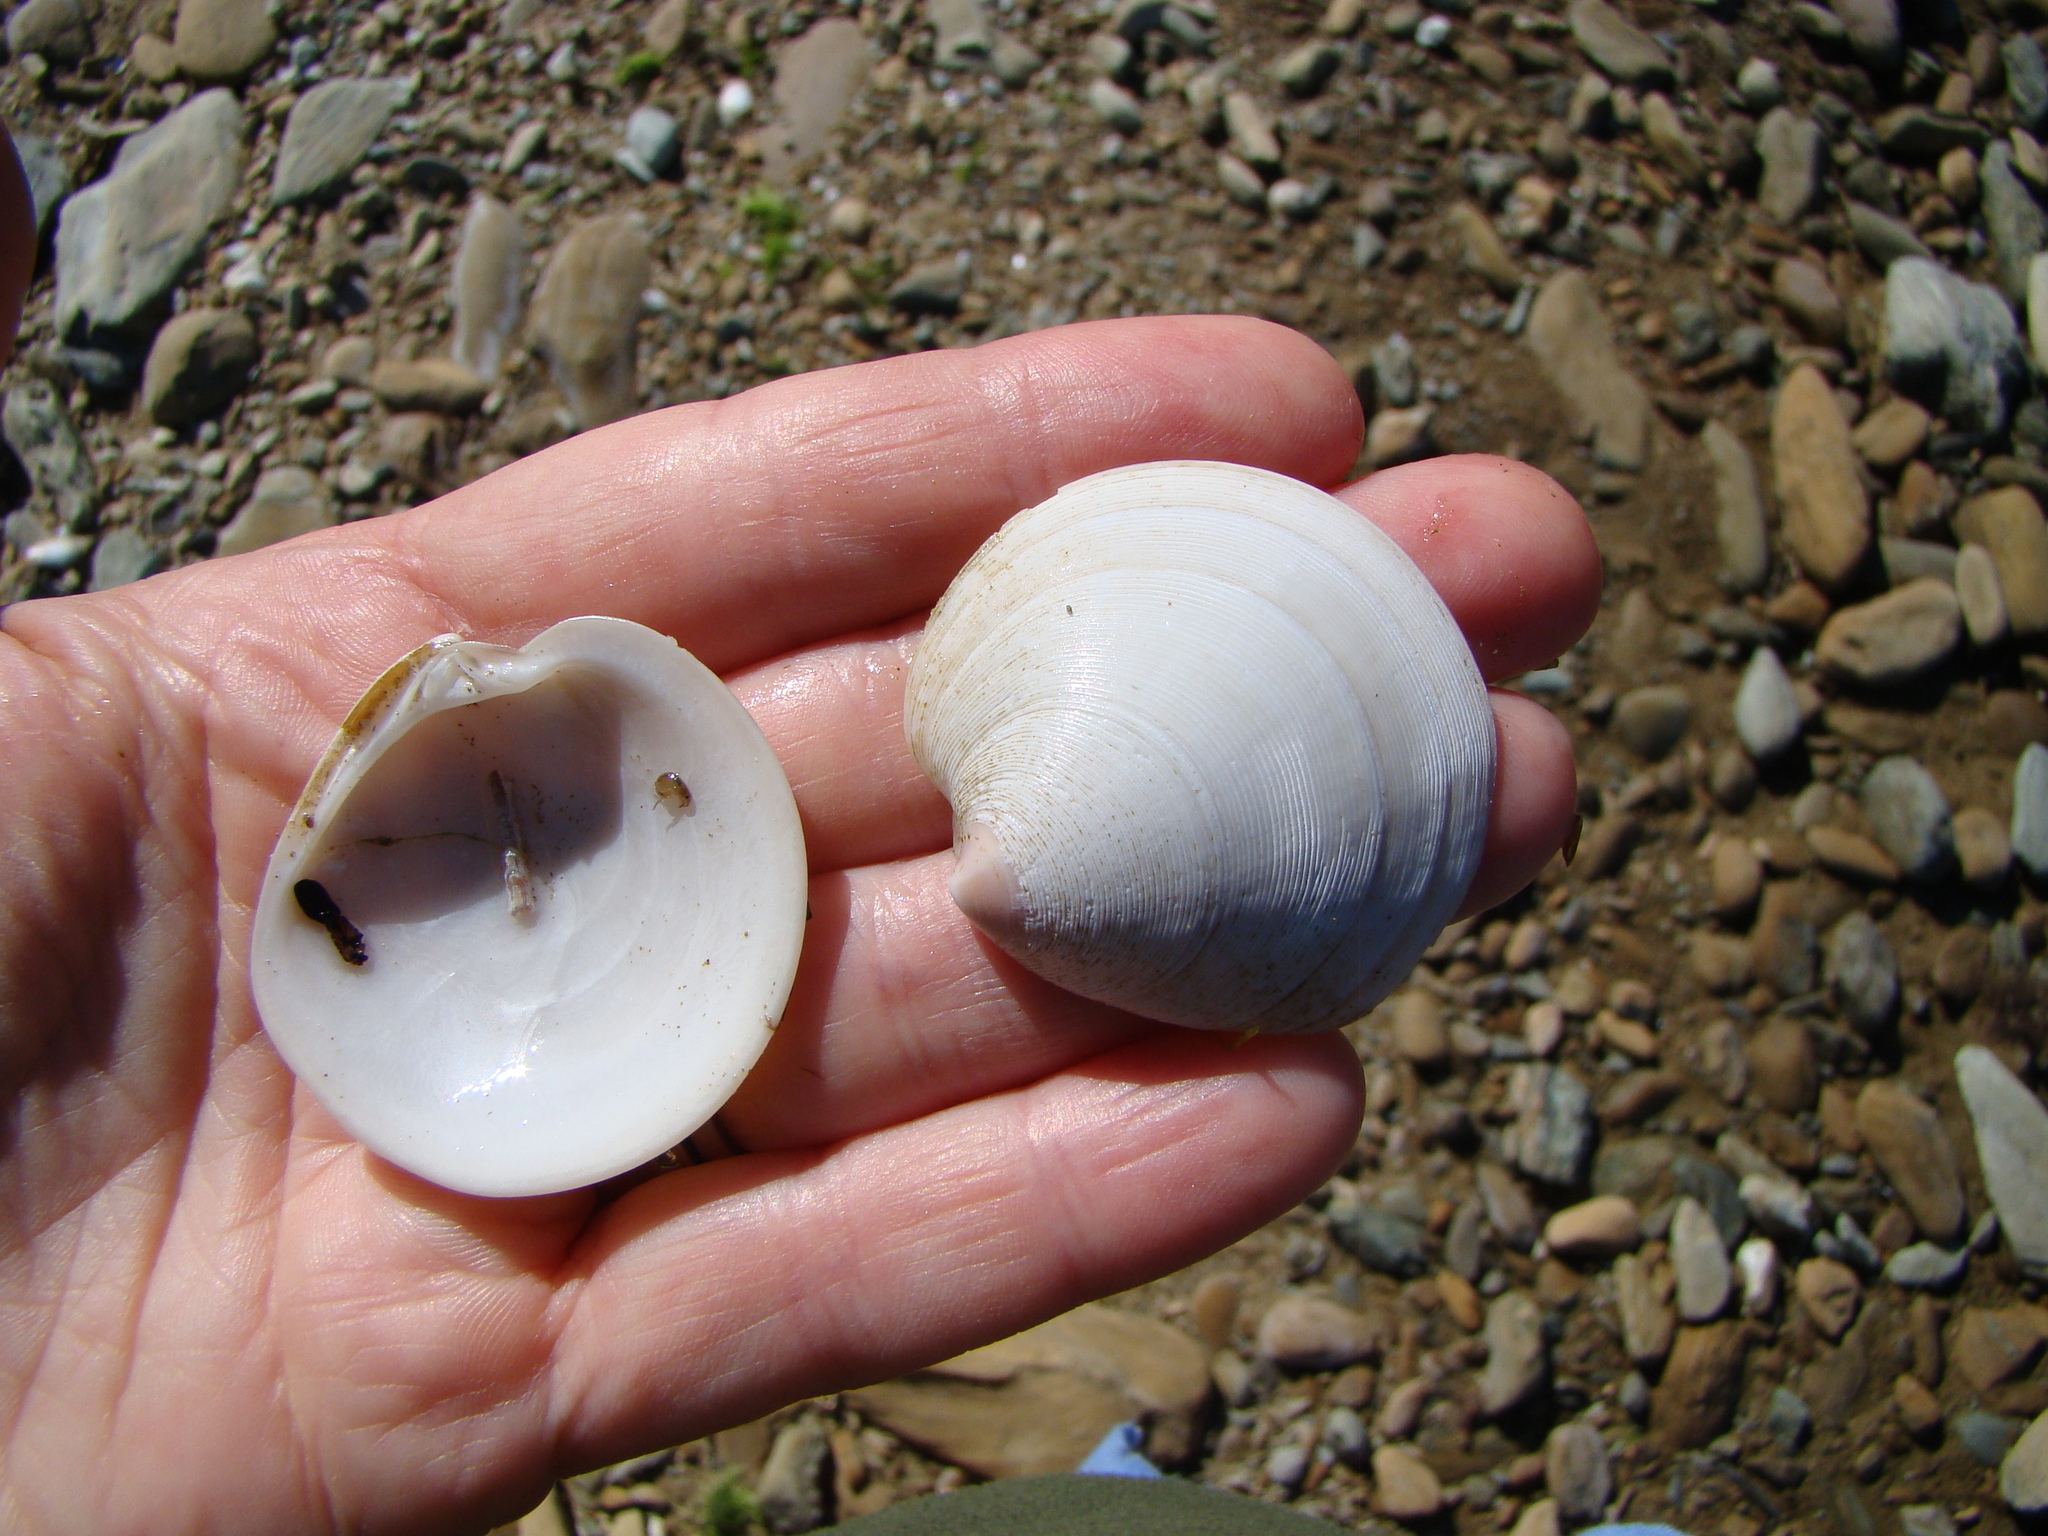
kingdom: Animalia
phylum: Mollusca
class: Bivalvia
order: Venerida
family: Veneridae
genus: Dosinia
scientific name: Dosinia subrosea
